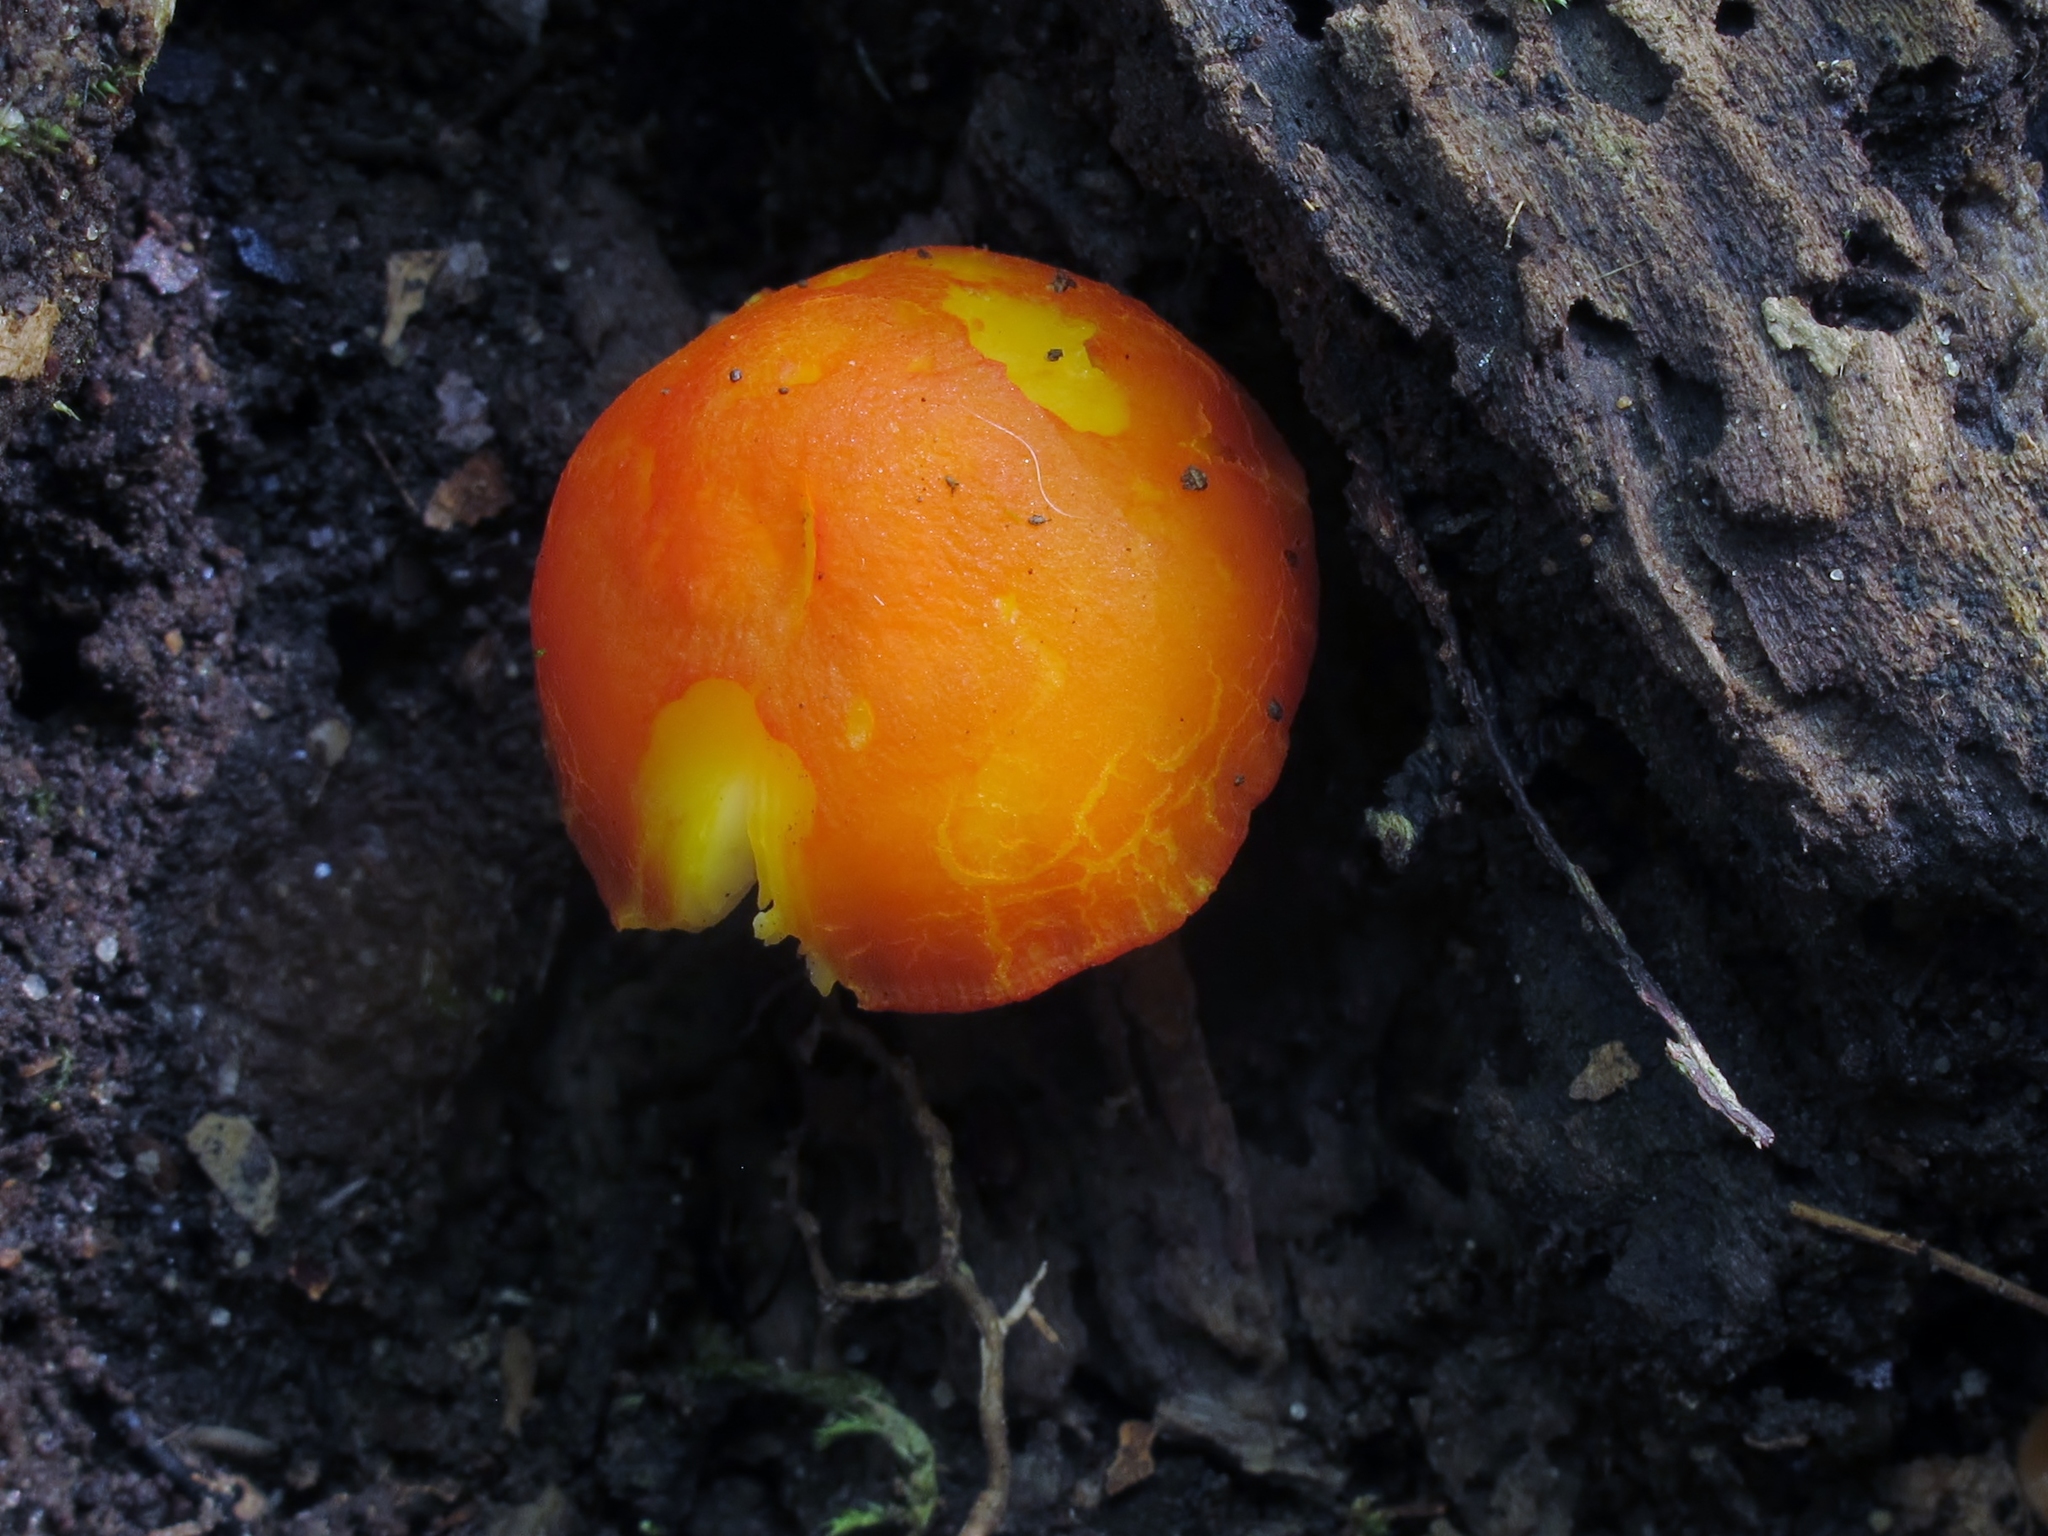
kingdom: Fungi
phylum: Basidiomycota
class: Agaricomycetes
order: Agaricales
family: Pluteaceae
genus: Pluteus
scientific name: Pluteus aurantiorugosus
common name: Flame shield
